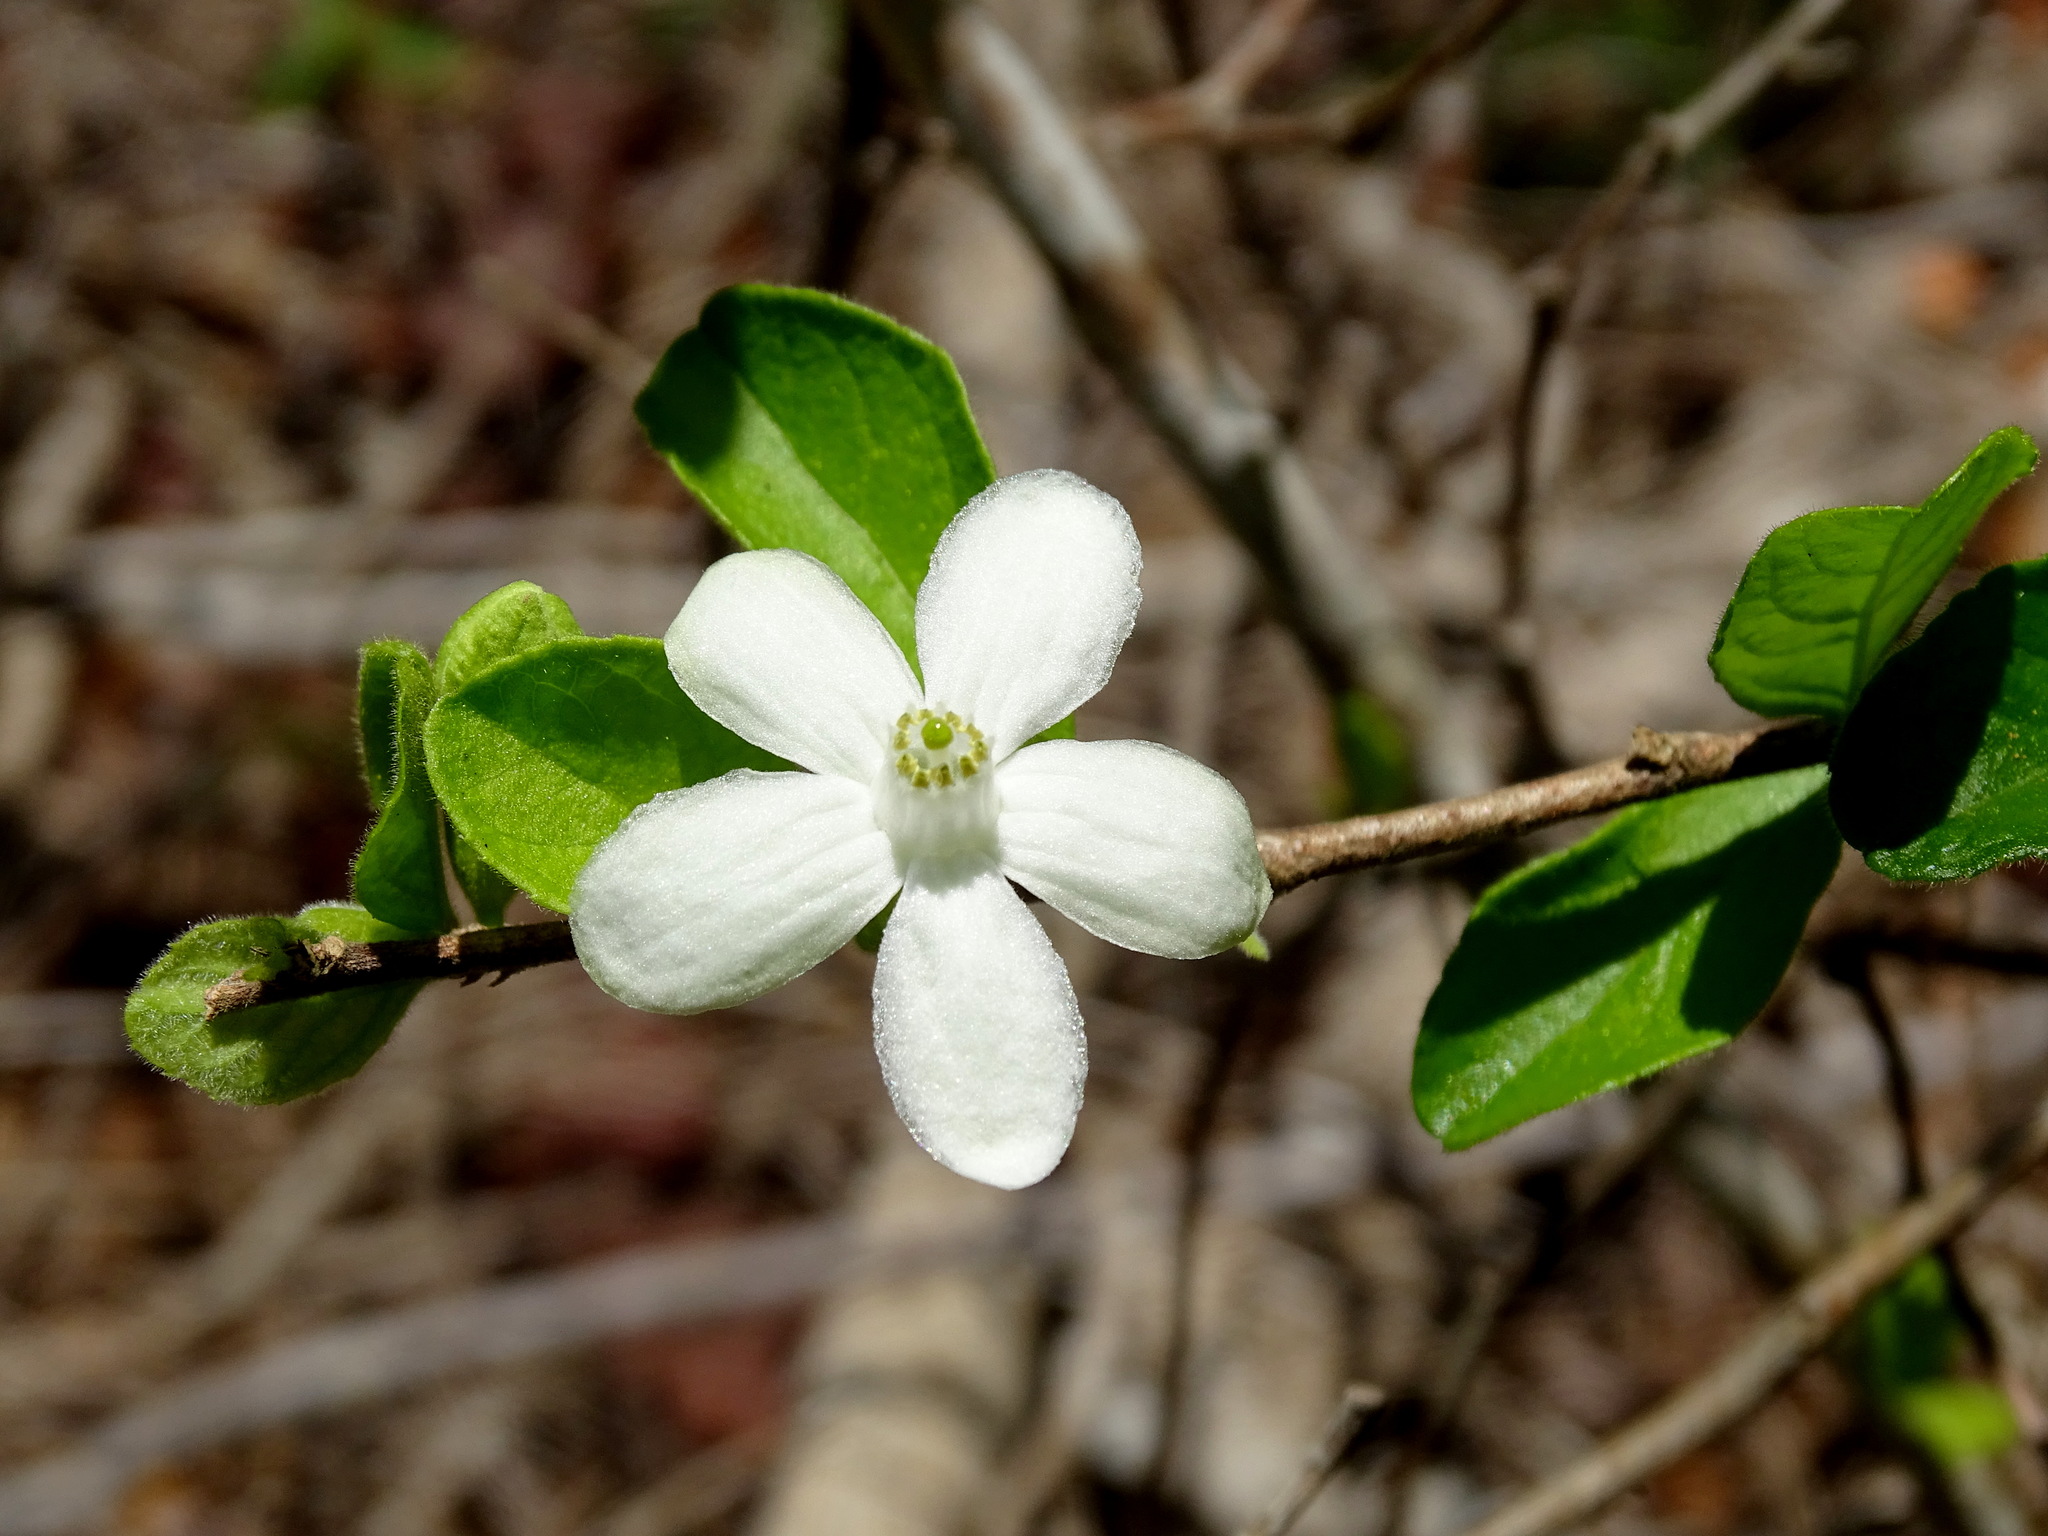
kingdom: Plantae
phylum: Tracheophyta
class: Magnoliopsida
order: Malpighiales
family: Salicaceae
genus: Casearia
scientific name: Casearia yucatanensis
